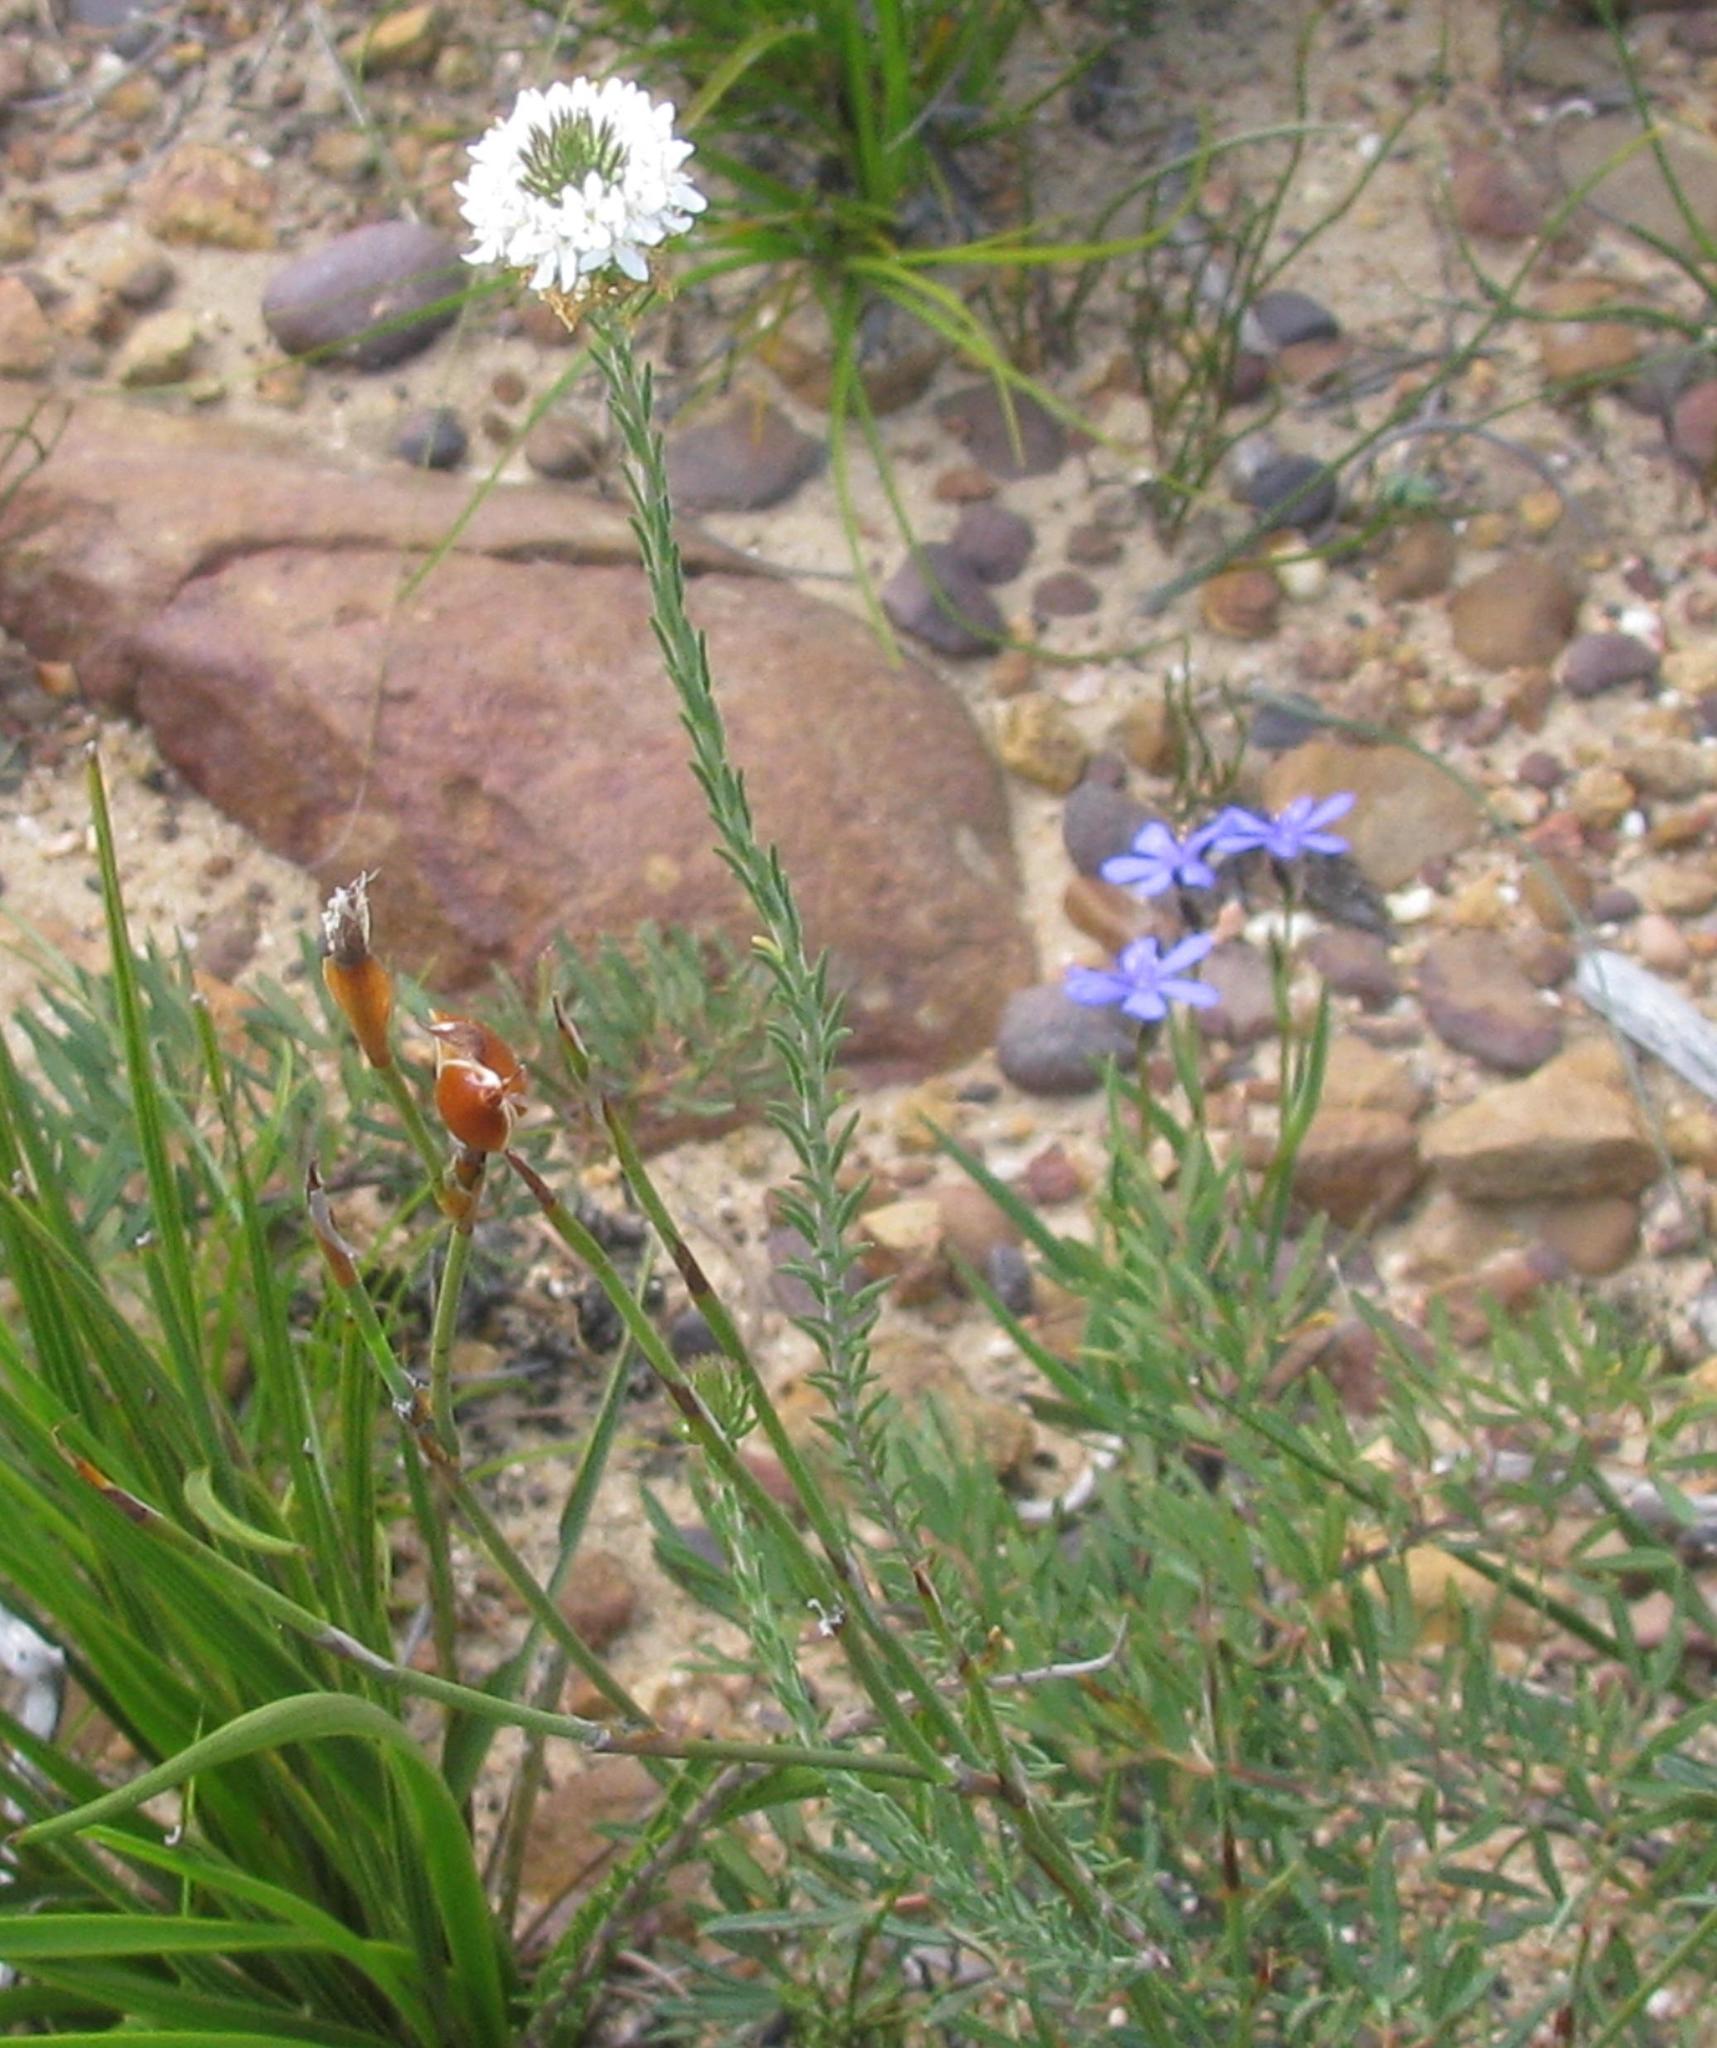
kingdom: Plantae
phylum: Tracheophyta
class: Magnoliopsida
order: Lamiales
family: Scrophulariaceae
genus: Selago
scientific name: Selago mundii
